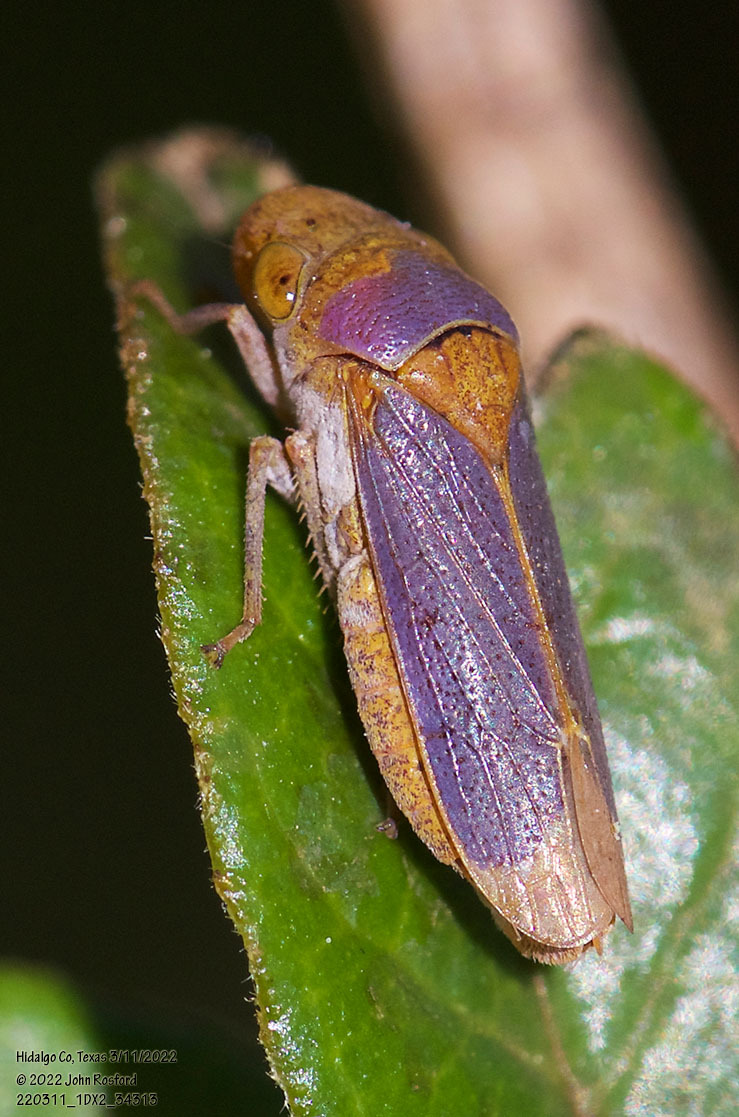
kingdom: Animalia
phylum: Arthropoda
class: Insecta
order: Hemiptera
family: Cicadellidae
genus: Oncometopia
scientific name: Oncometopia hamiltoni
